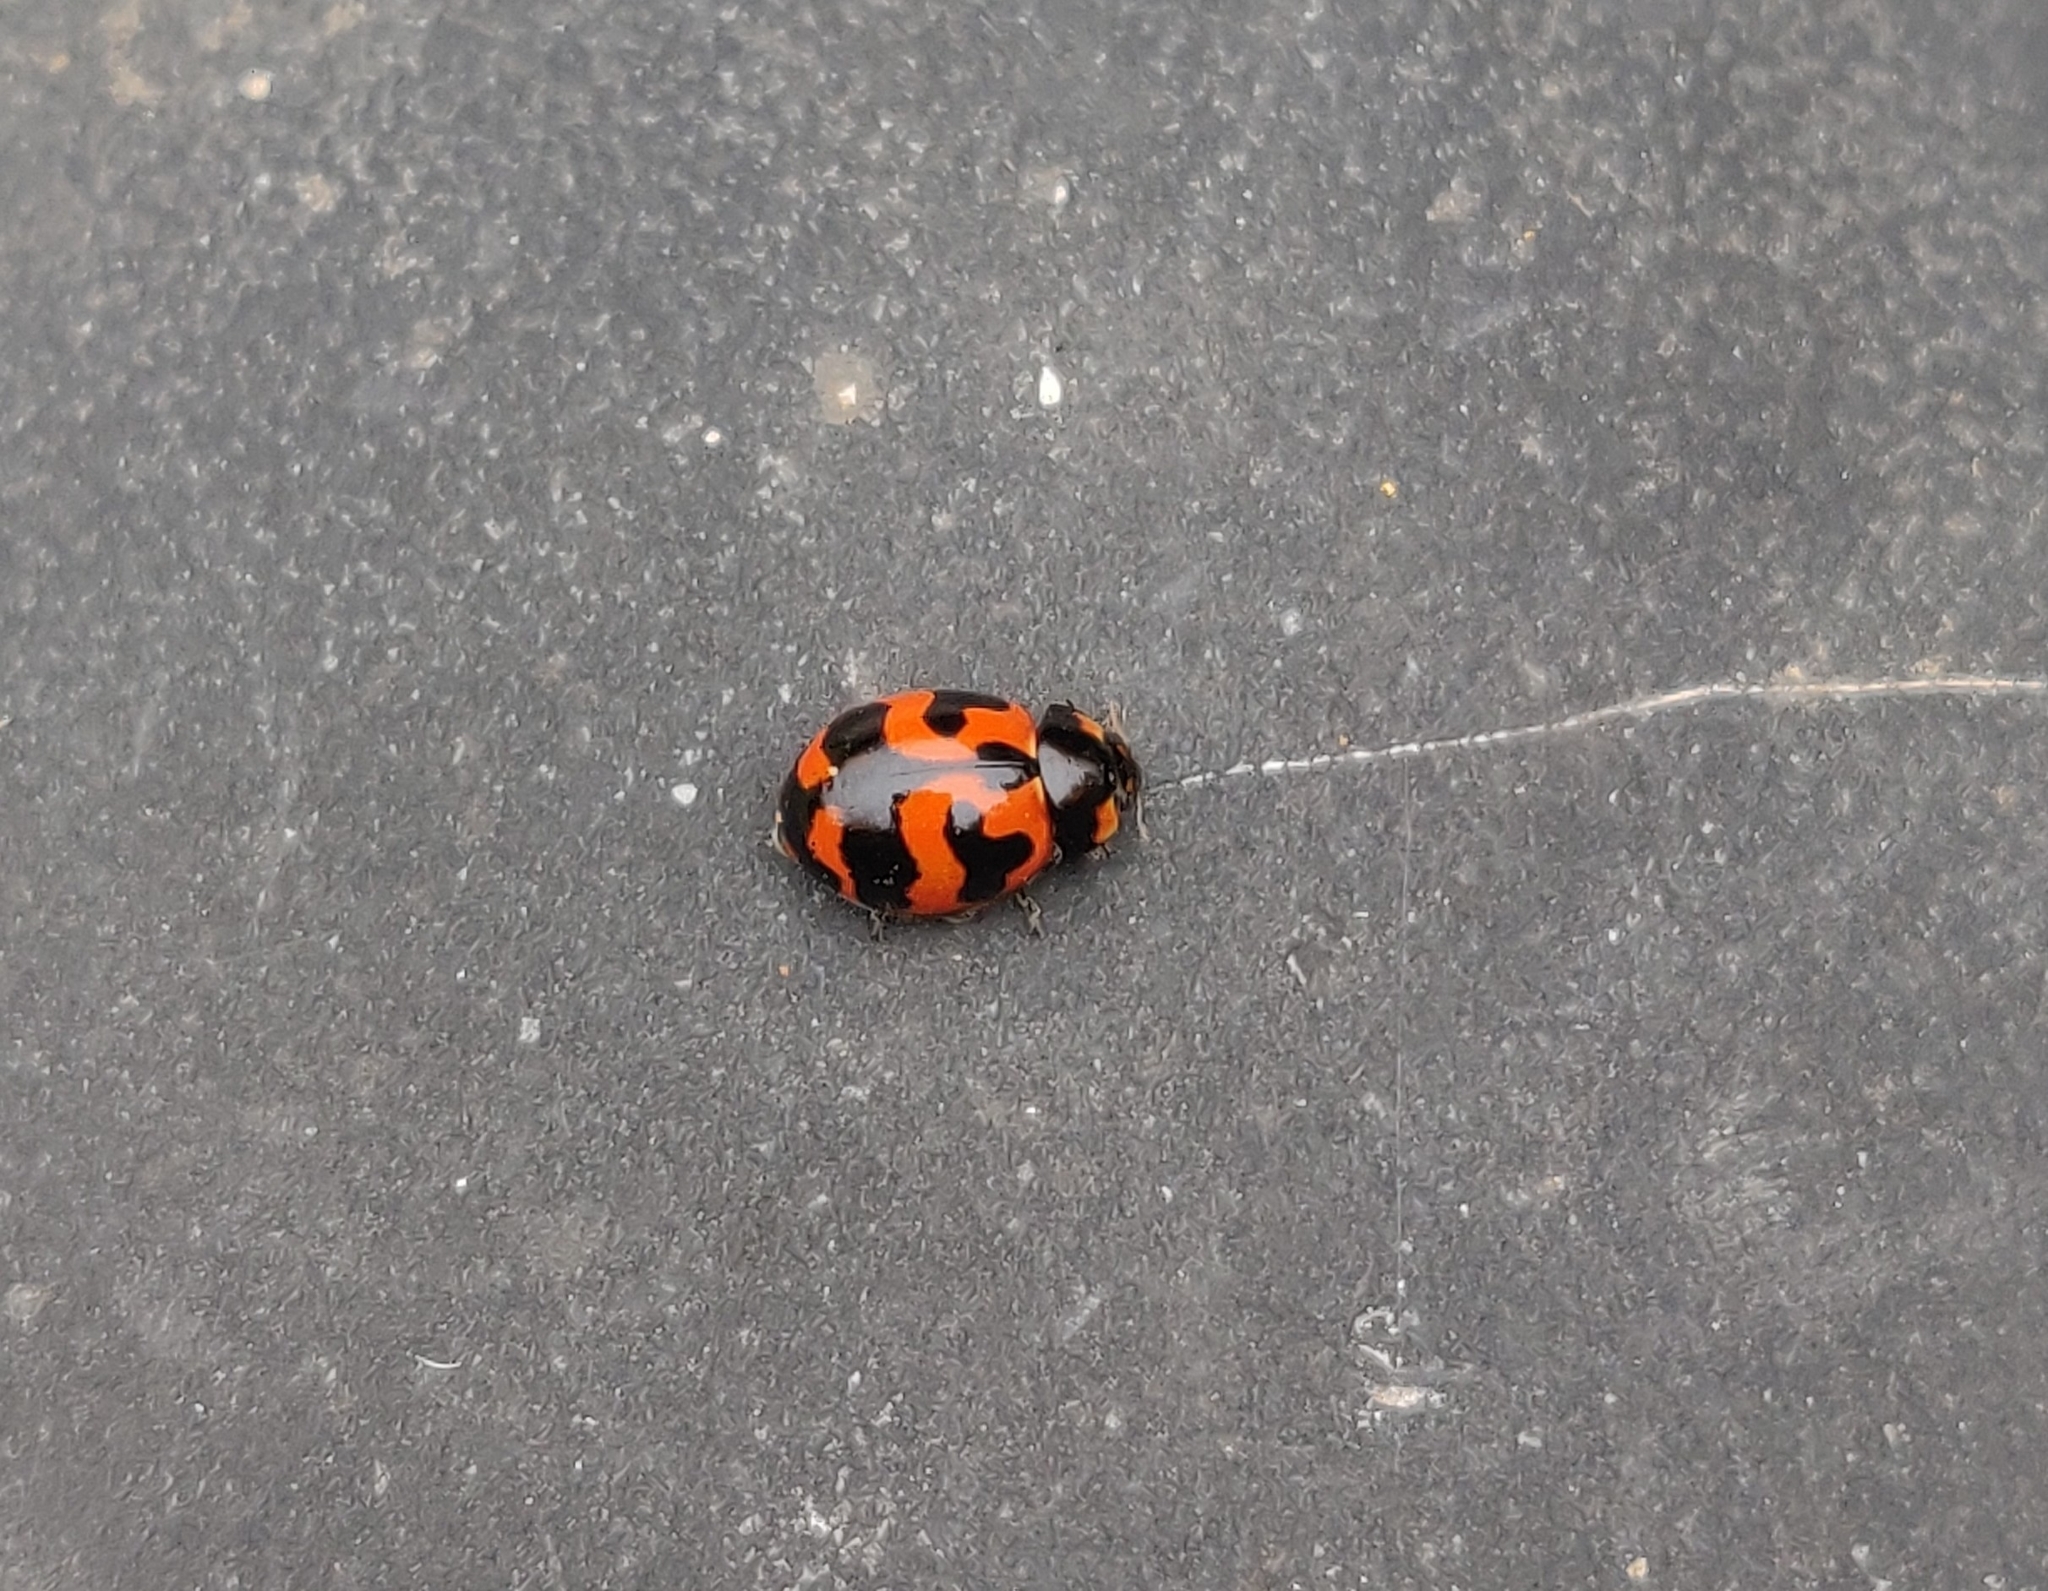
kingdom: Animalia
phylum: Arthropoda
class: Insecta
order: Coleoptera
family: Coccinellidae
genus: Coccinella
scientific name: Coccinella transversalis
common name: Transverse lady beetle
